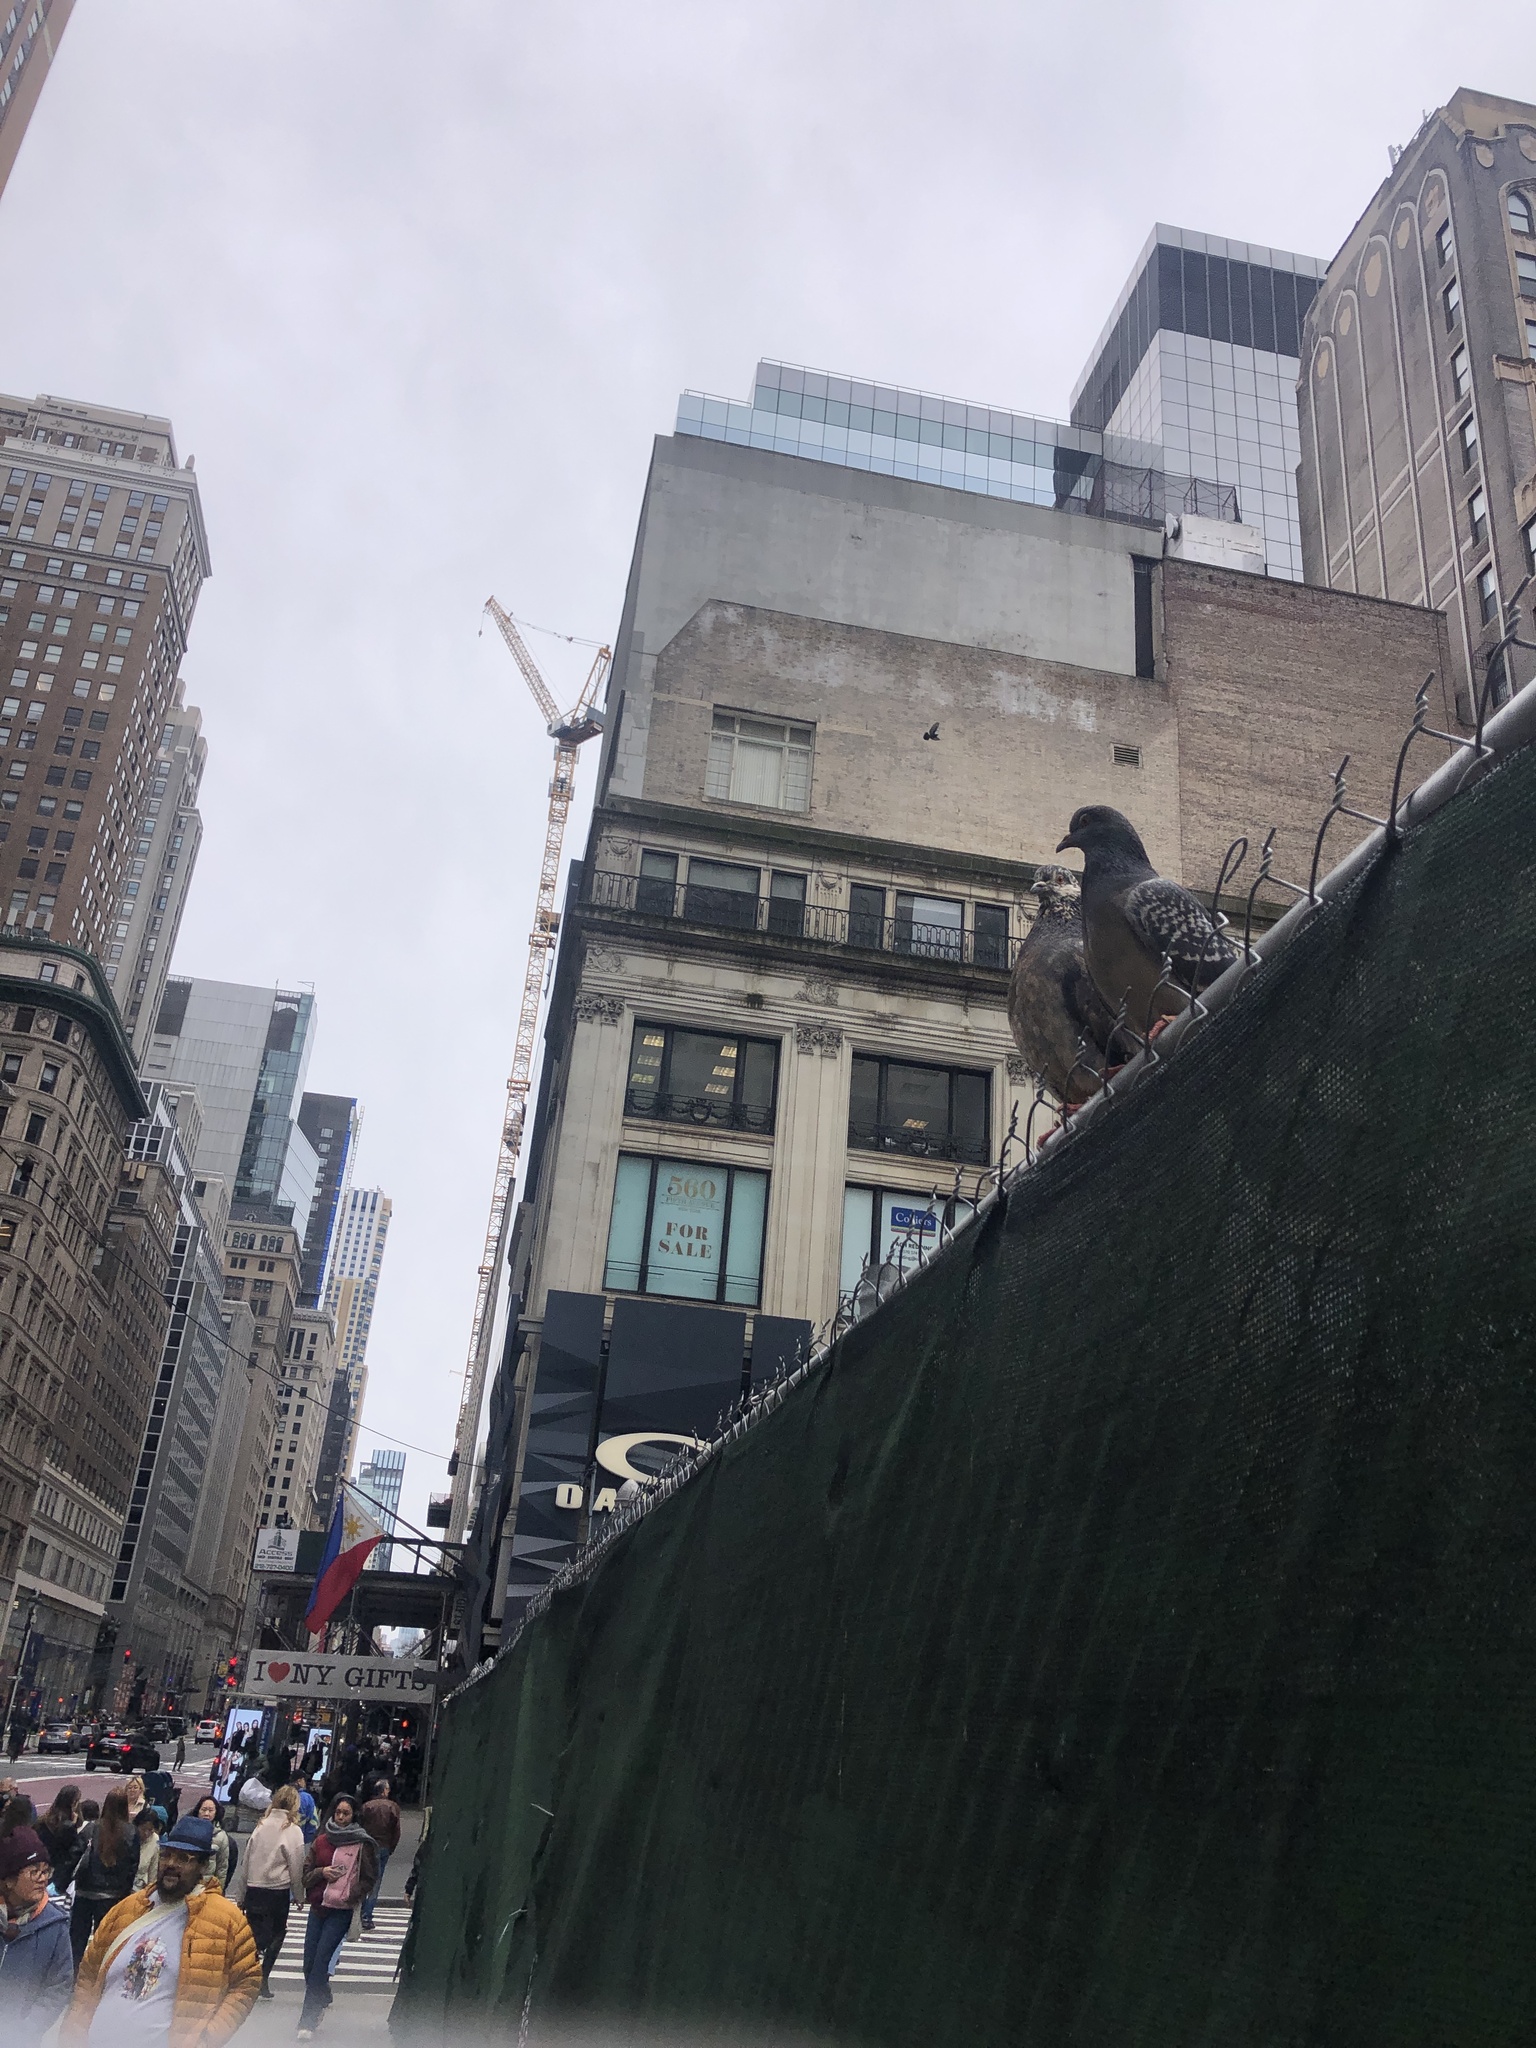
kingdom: Animalia
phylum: Chordata
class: Aves
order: Columbiformes
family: Columbidae
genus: Columba
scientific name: Columba livia
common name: Rock pigeon
